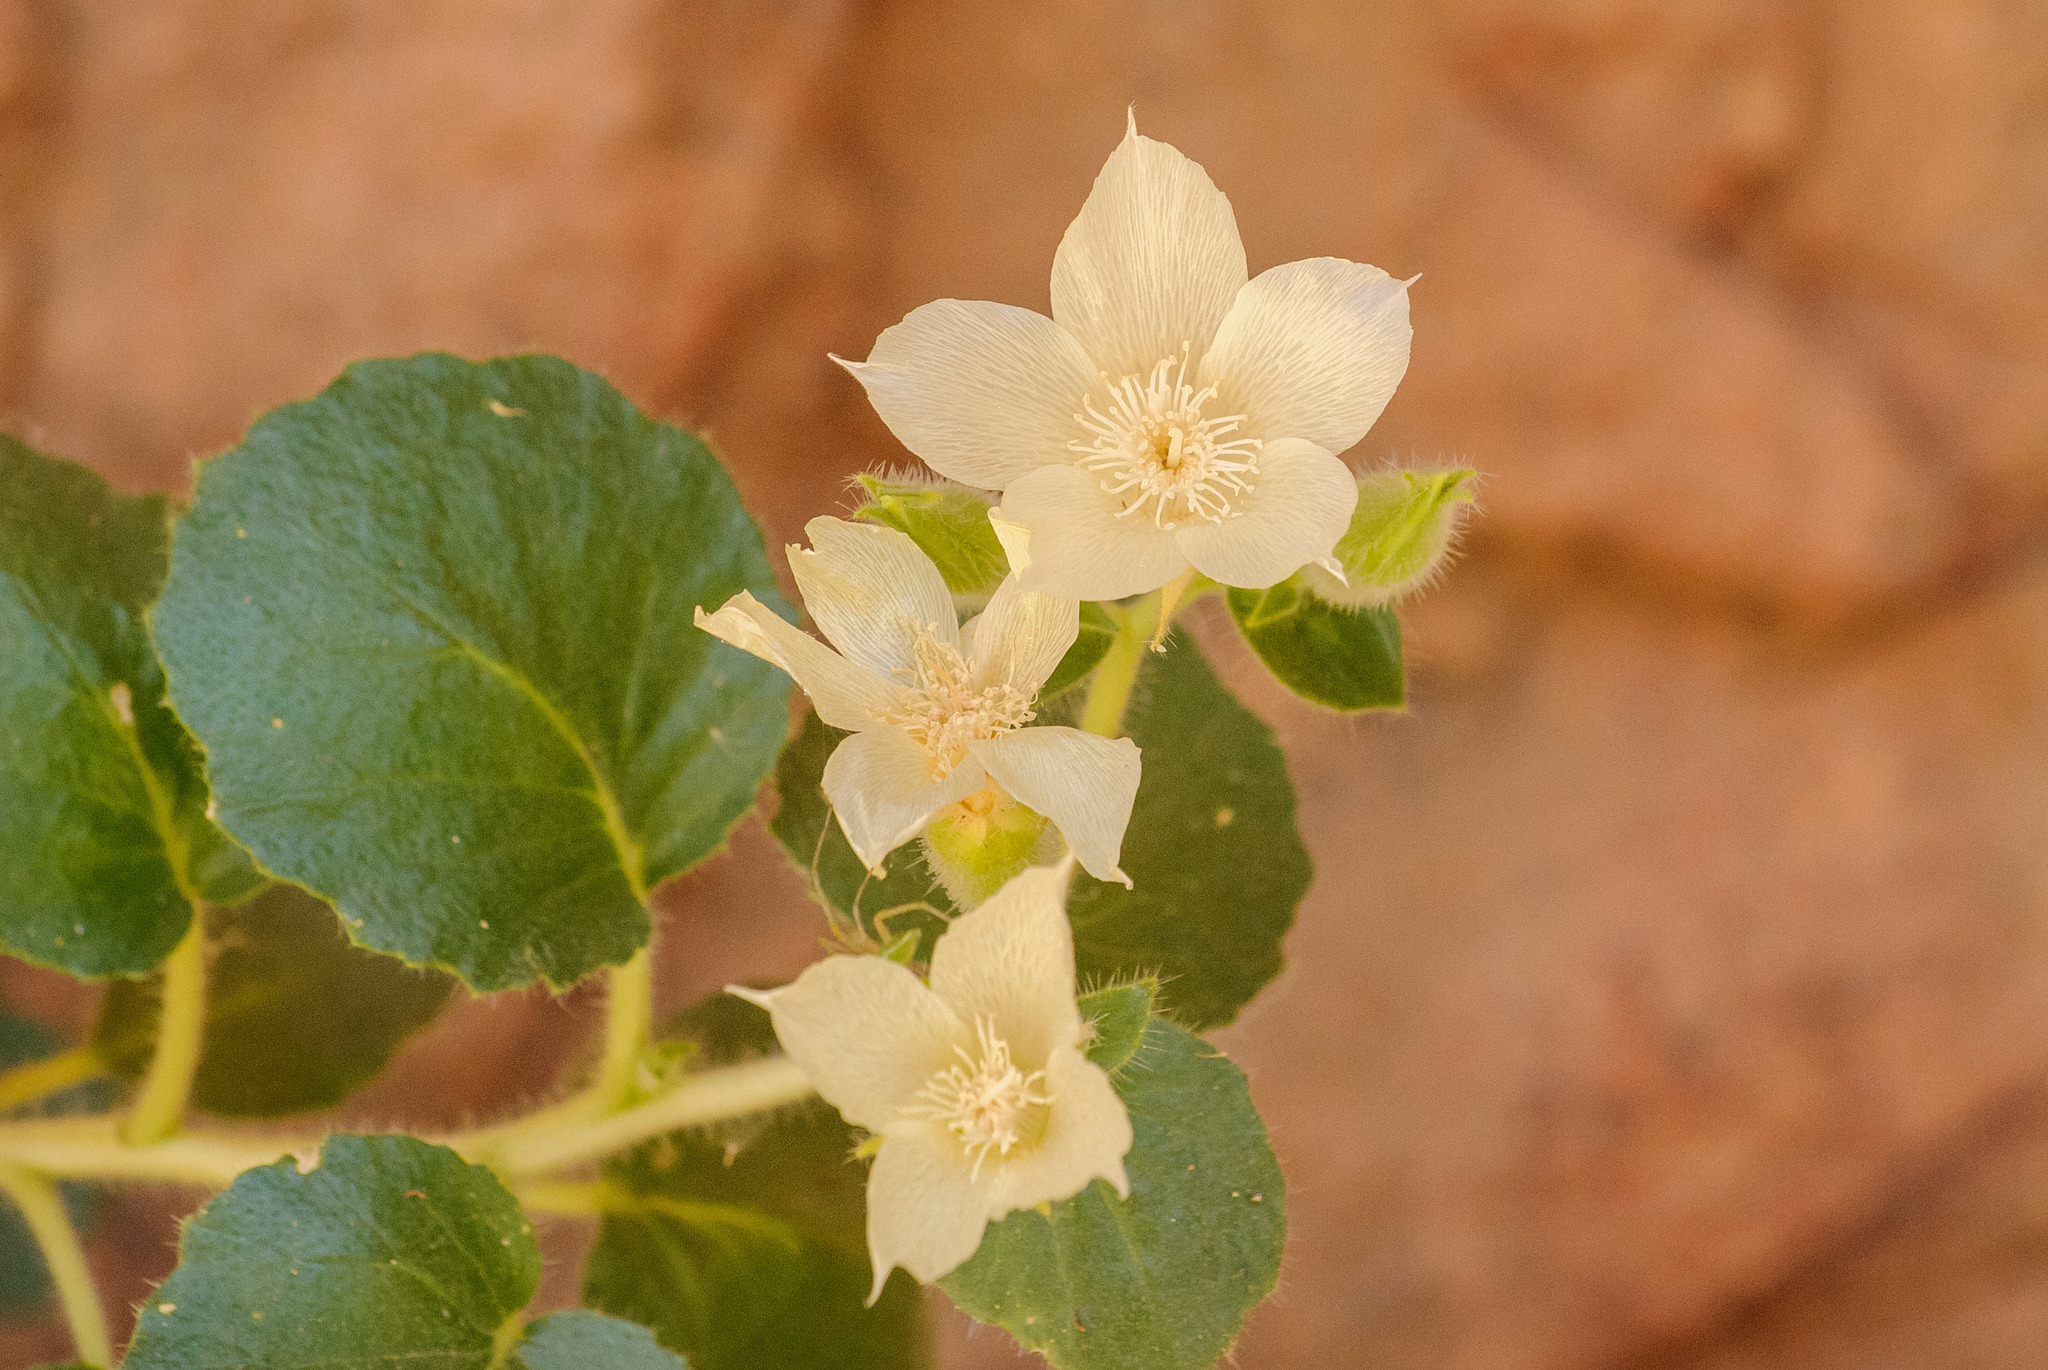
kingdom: Plantae
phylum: Tracheophyta
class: Magnoliopsida
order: Cornales
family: Loasaceae
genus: Eucnide
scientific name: Eucnide urens
